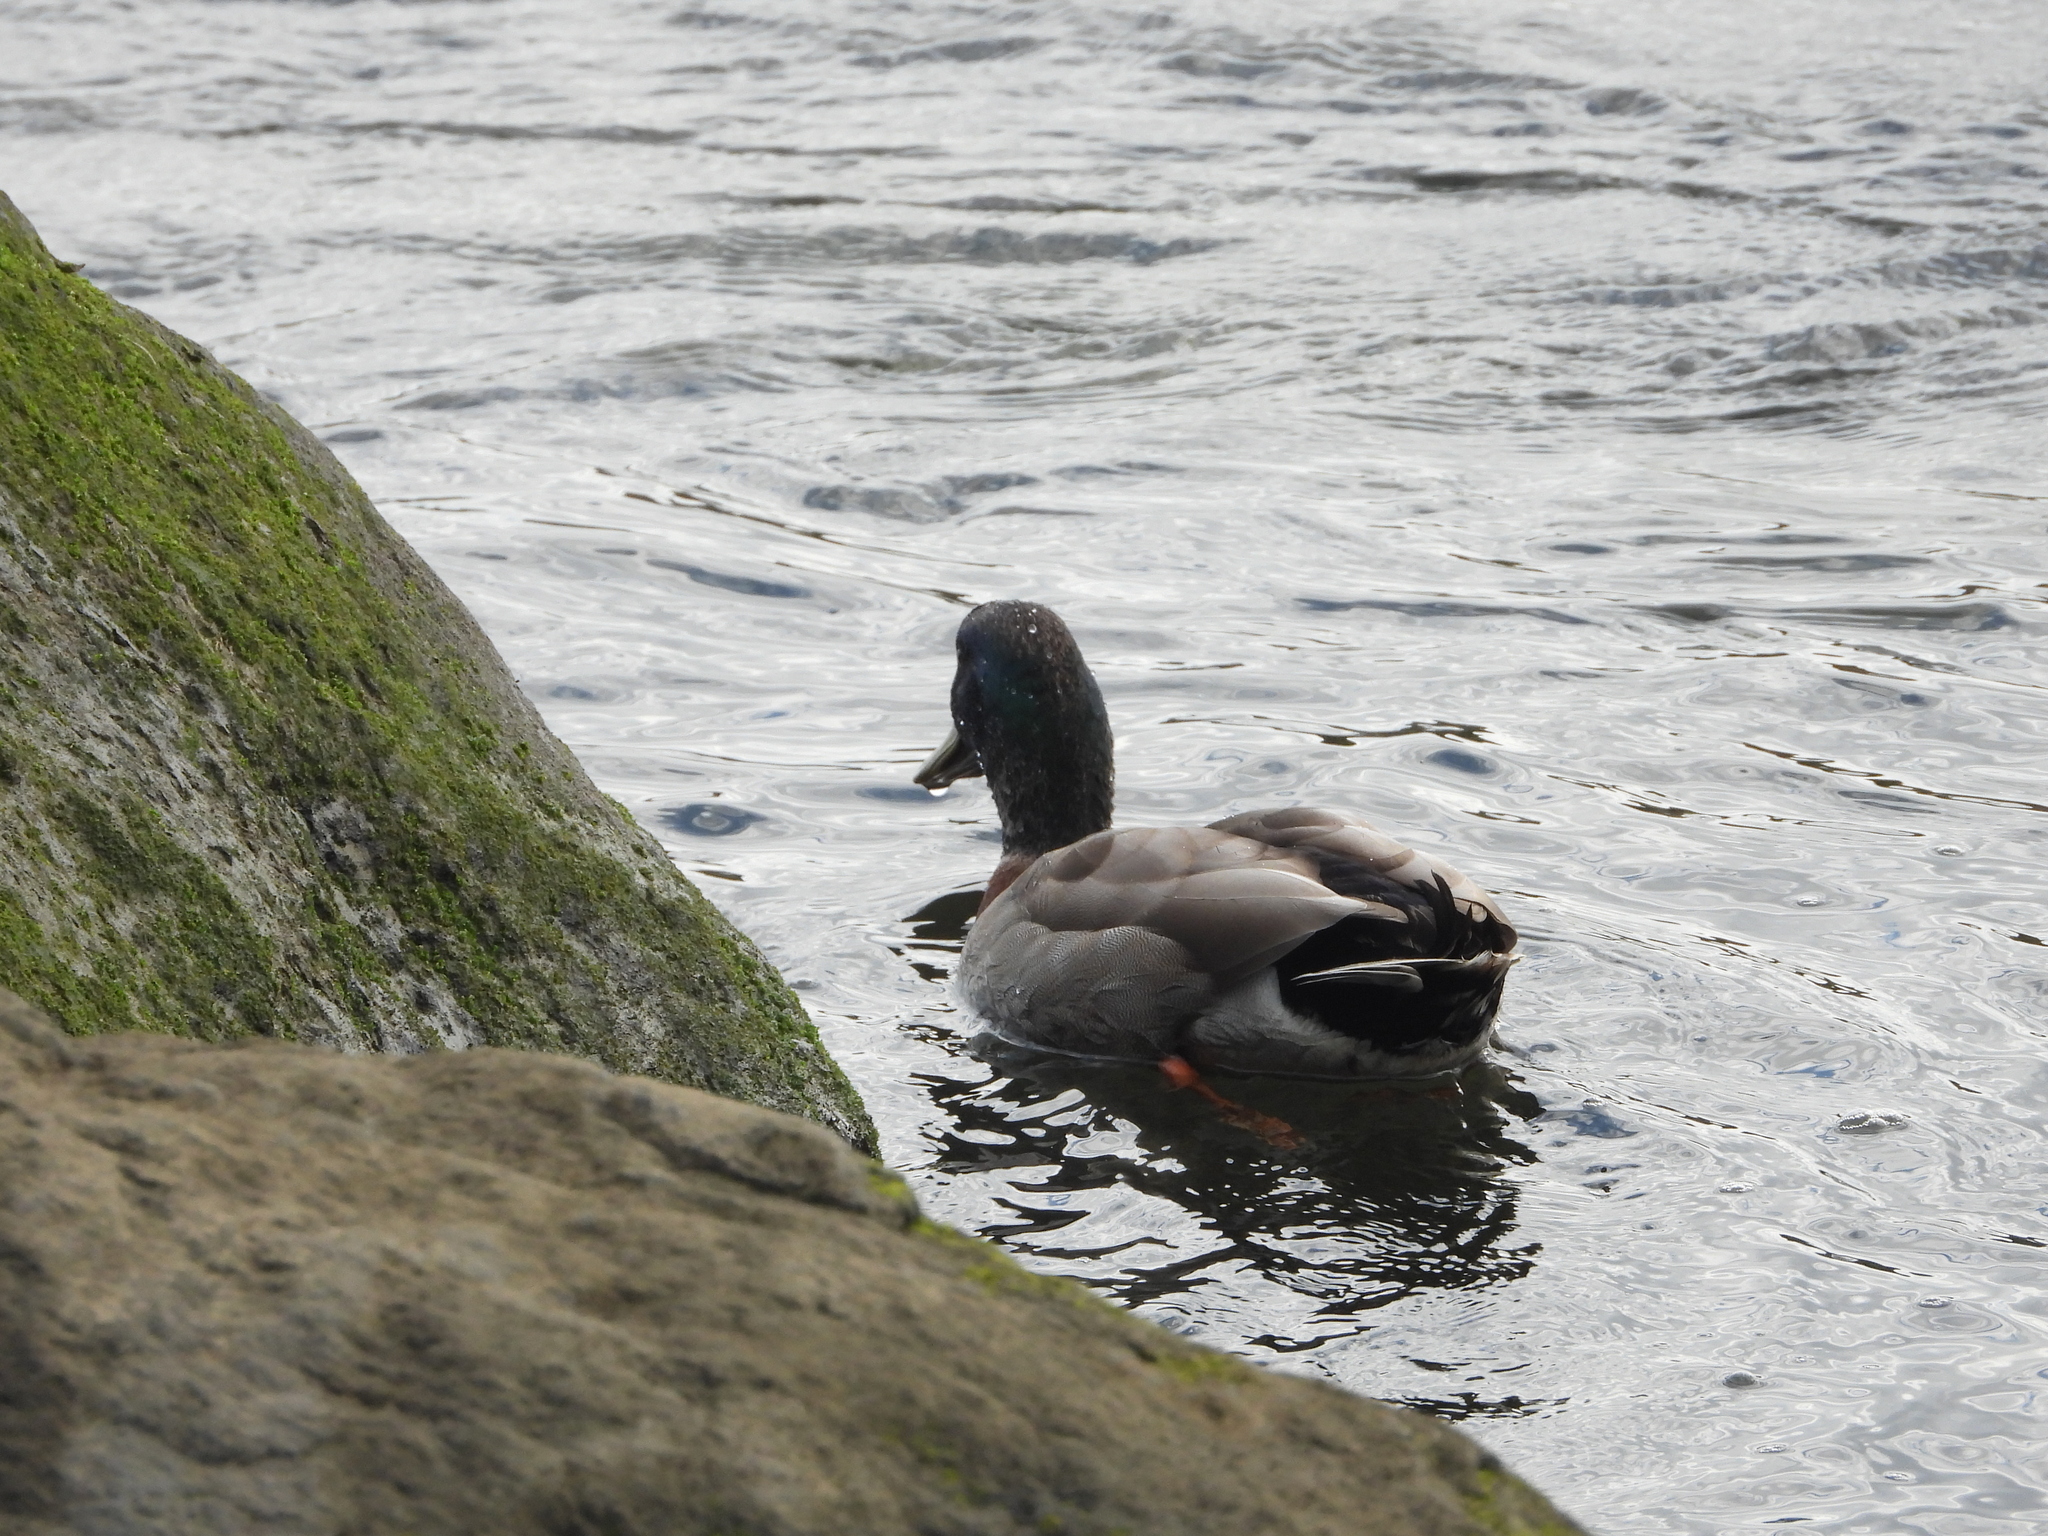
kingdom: Animalia
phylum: Chordata
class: Aves
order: Anseriformes
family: Anatidae
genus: Anas
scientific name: Anas platyrhynchos
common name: Mallard
